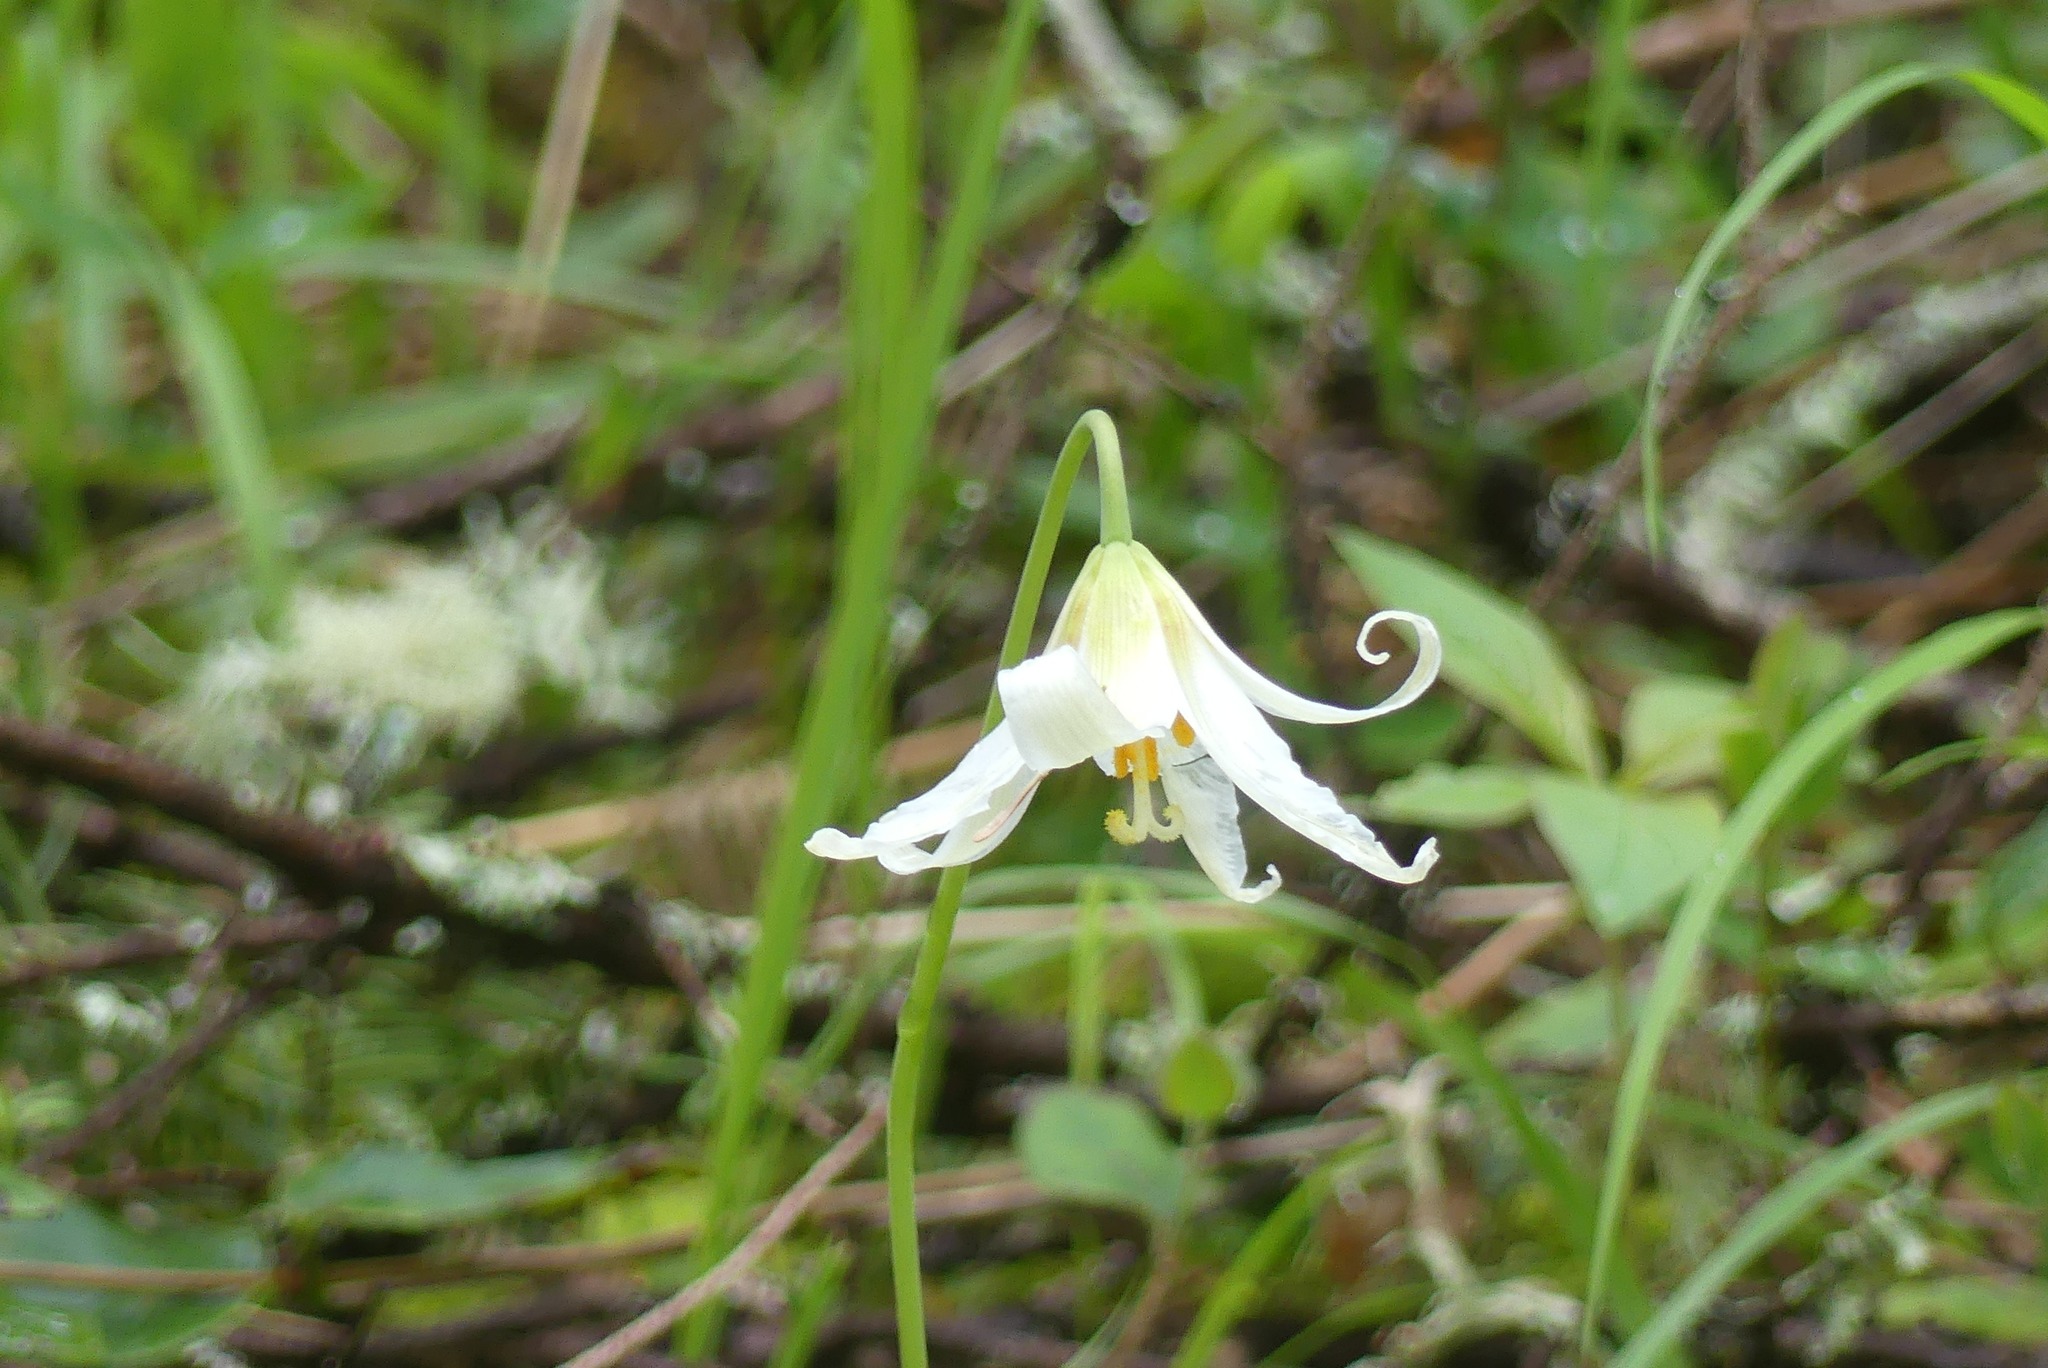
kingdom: Plantae
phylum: Tracheophyta
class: Liliopsida
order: Liliales
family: Liliaceae
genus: Erythronium
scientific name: Erythronium oregonum
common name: Giant adder's-tongue
